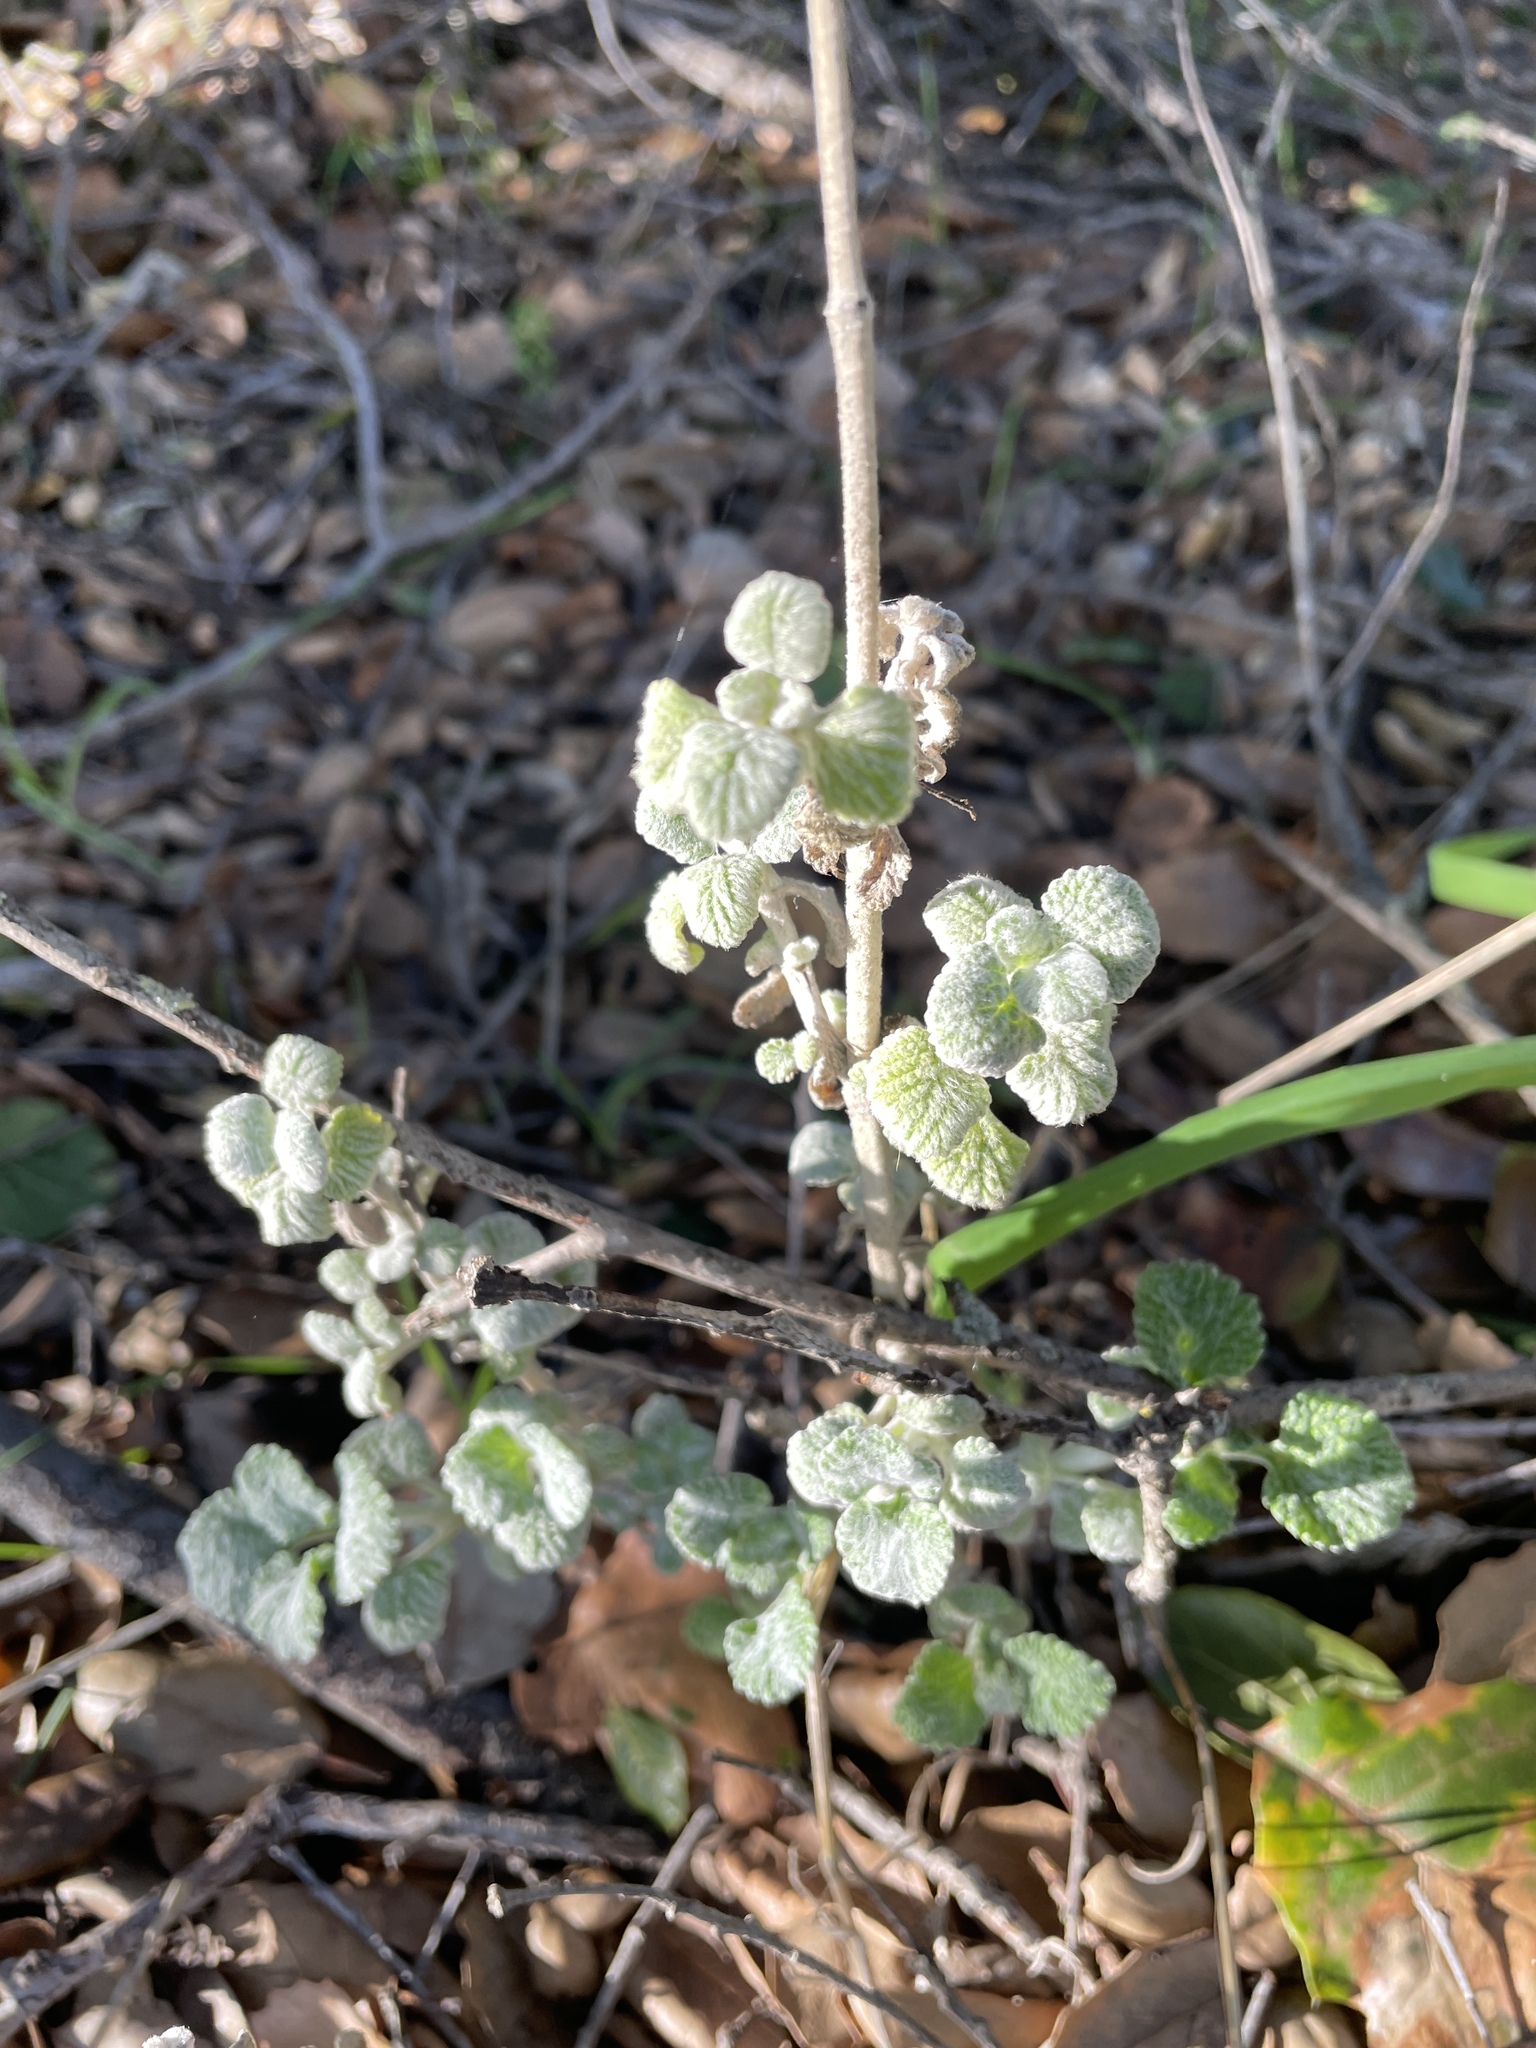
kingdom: Plantae
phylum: Tracheophyta
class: Magnoliopsida
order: Lamiales
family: Lamiaceae
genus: Marrubium
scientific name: Marrubium vulgare
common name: Horehound
